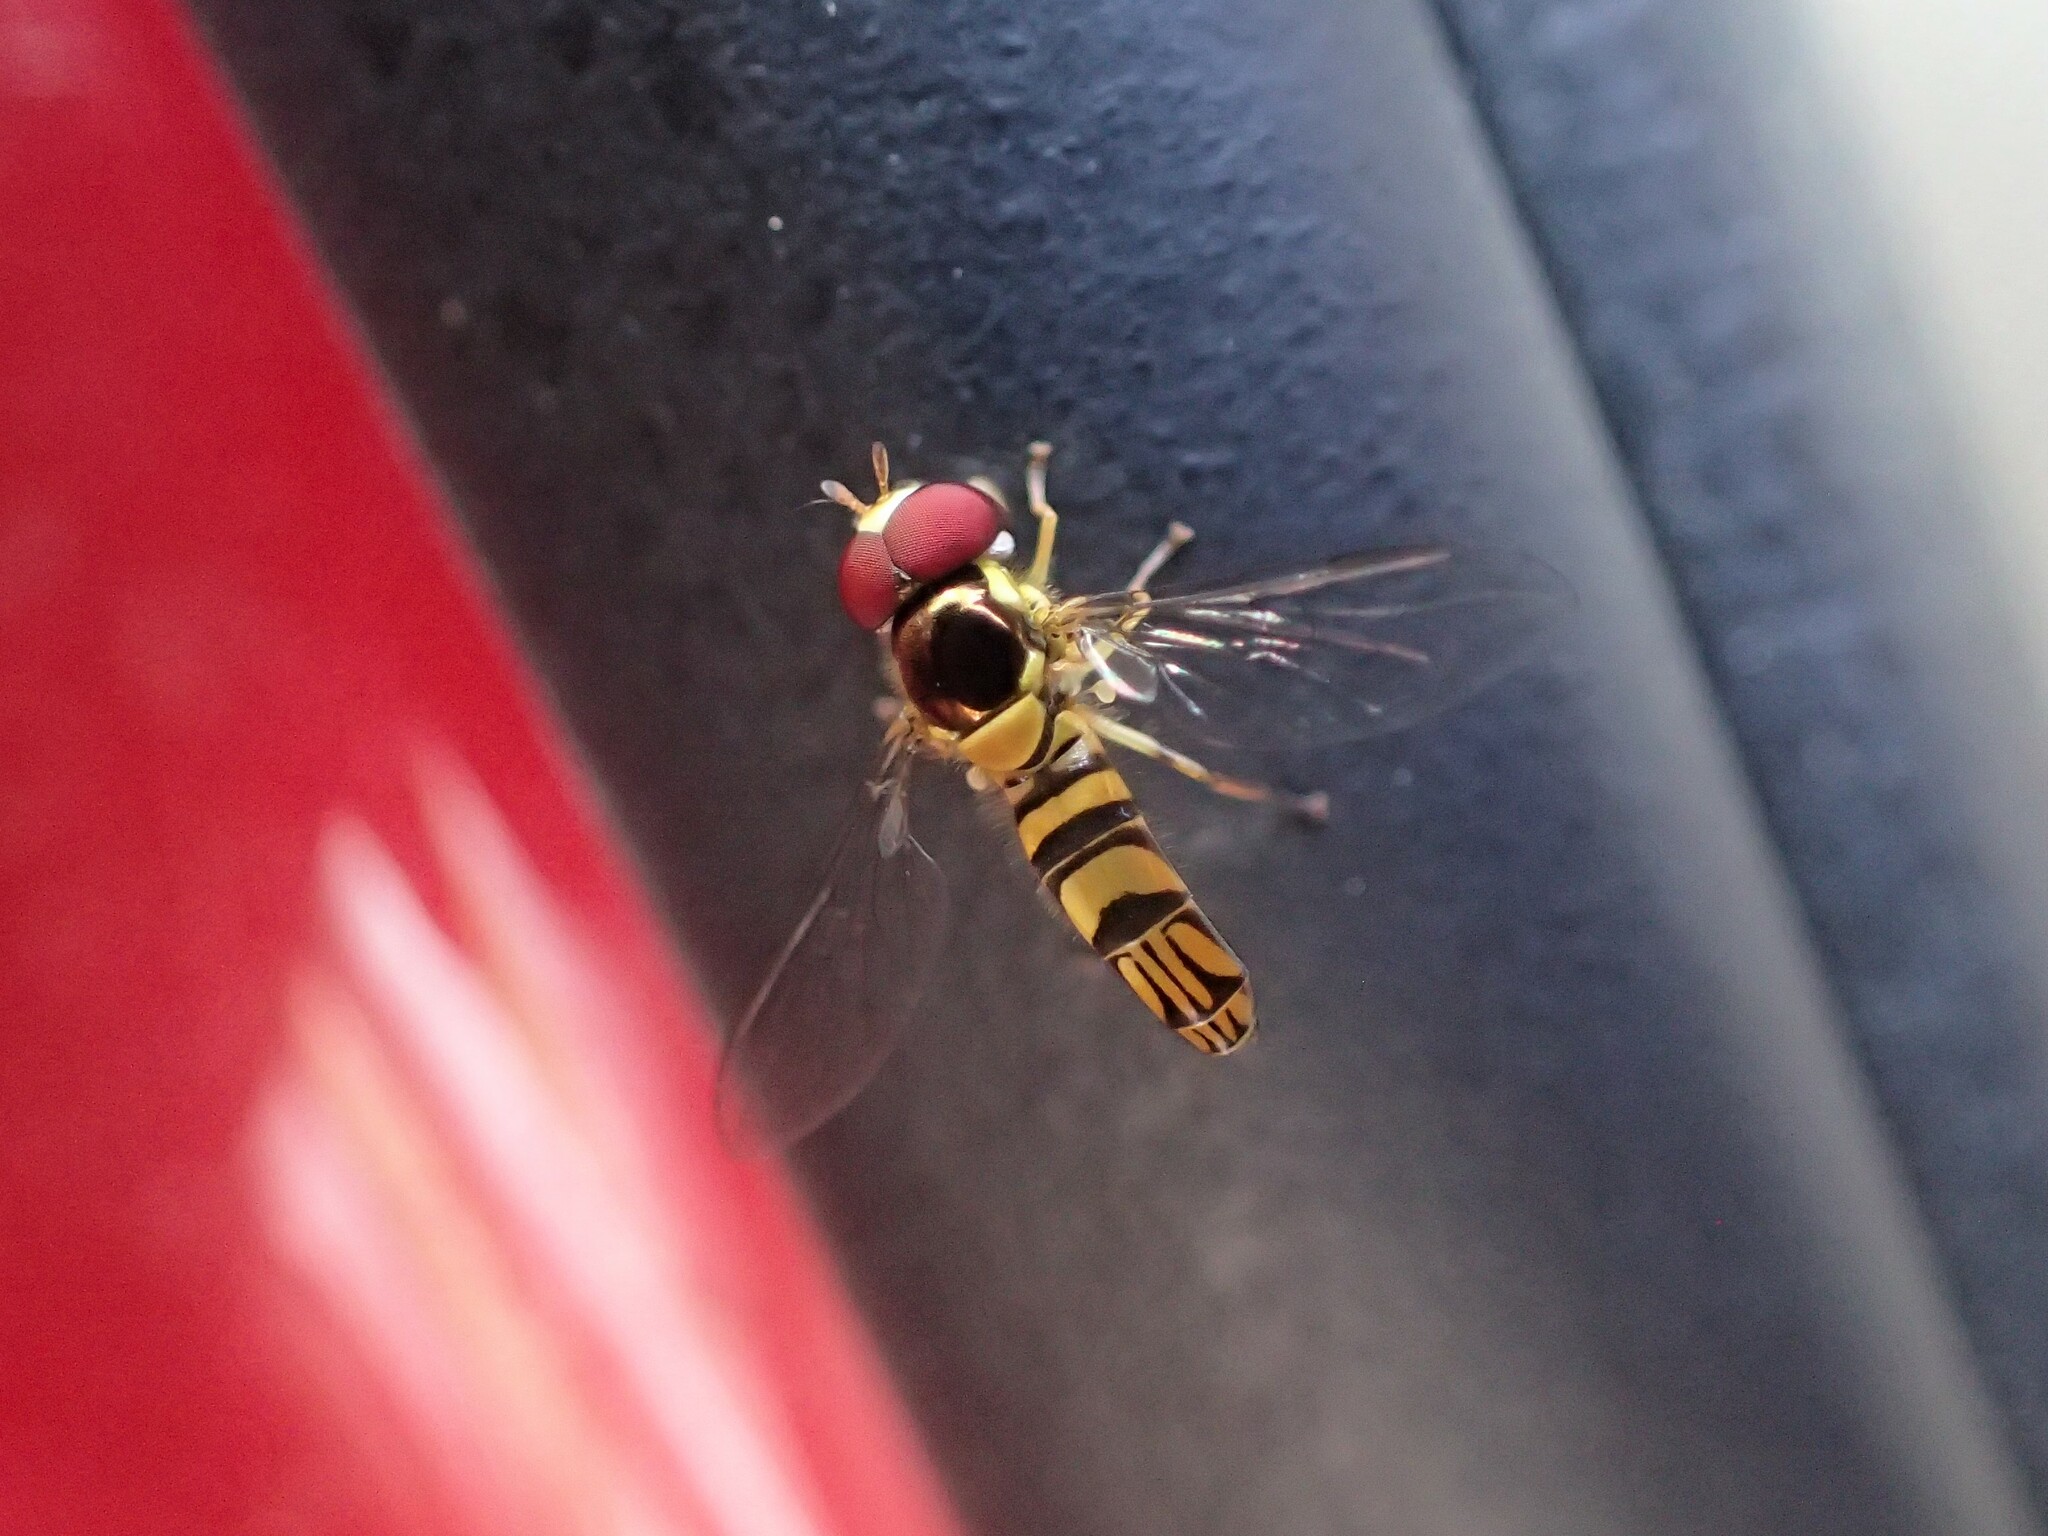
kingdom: Animalia
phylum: Arthropoda
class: Insecta
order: Diptera
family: Syrphidae
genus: Allograpta
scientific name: Allograpta obliqua
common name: Common oblique syrphid
